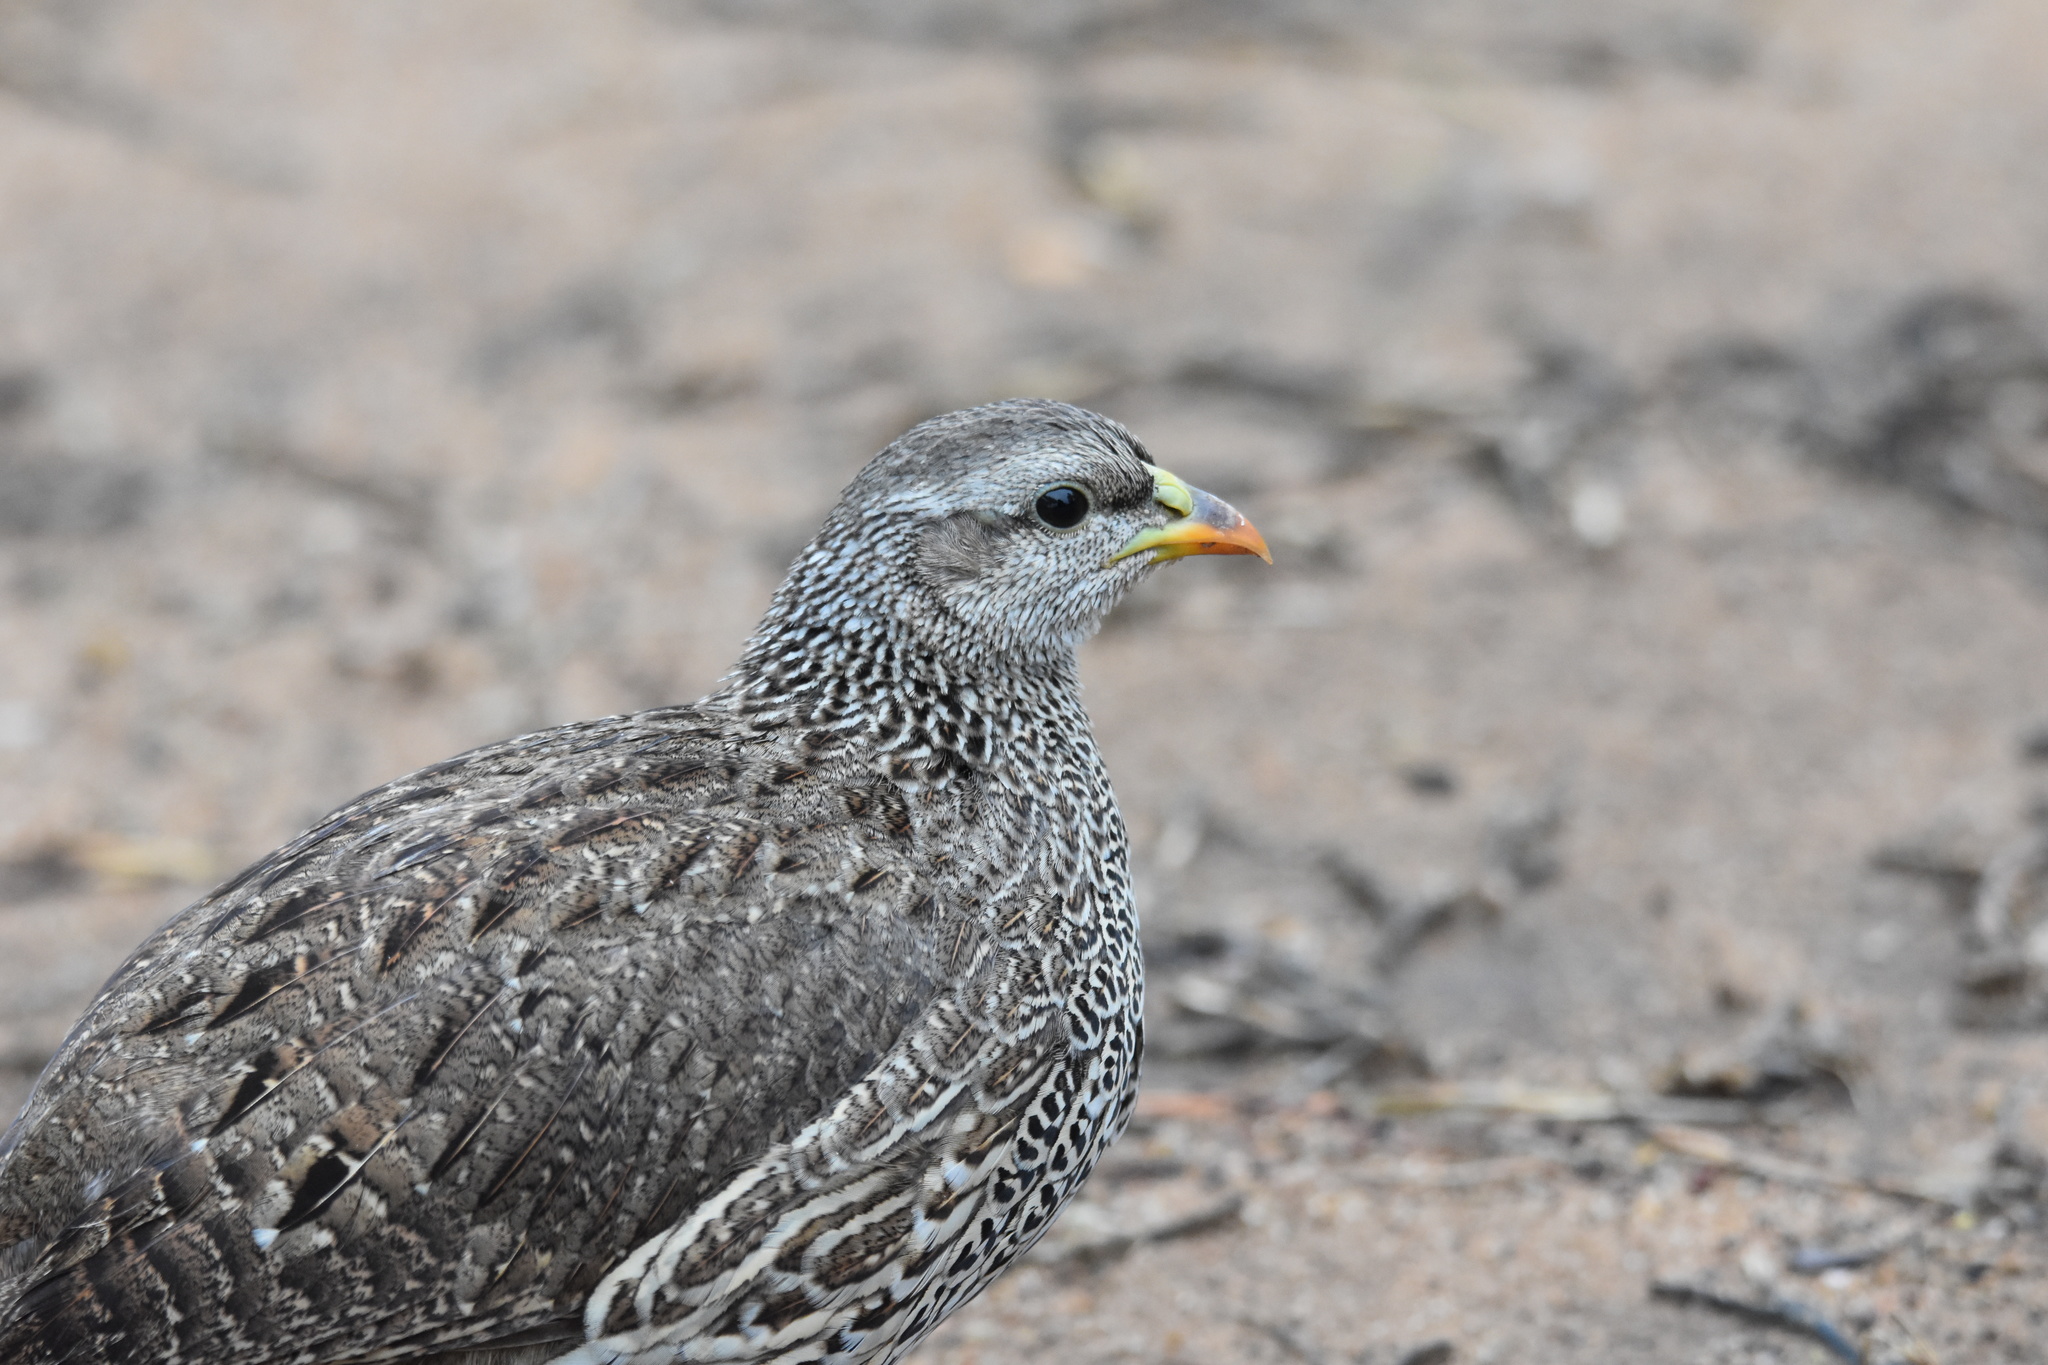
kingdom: Animalia
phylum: Chordata
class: Aves
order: Galliformes
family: Phasianidae
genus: Pternistis
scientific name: Pternistis natalensis
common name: Natal spurfowl
